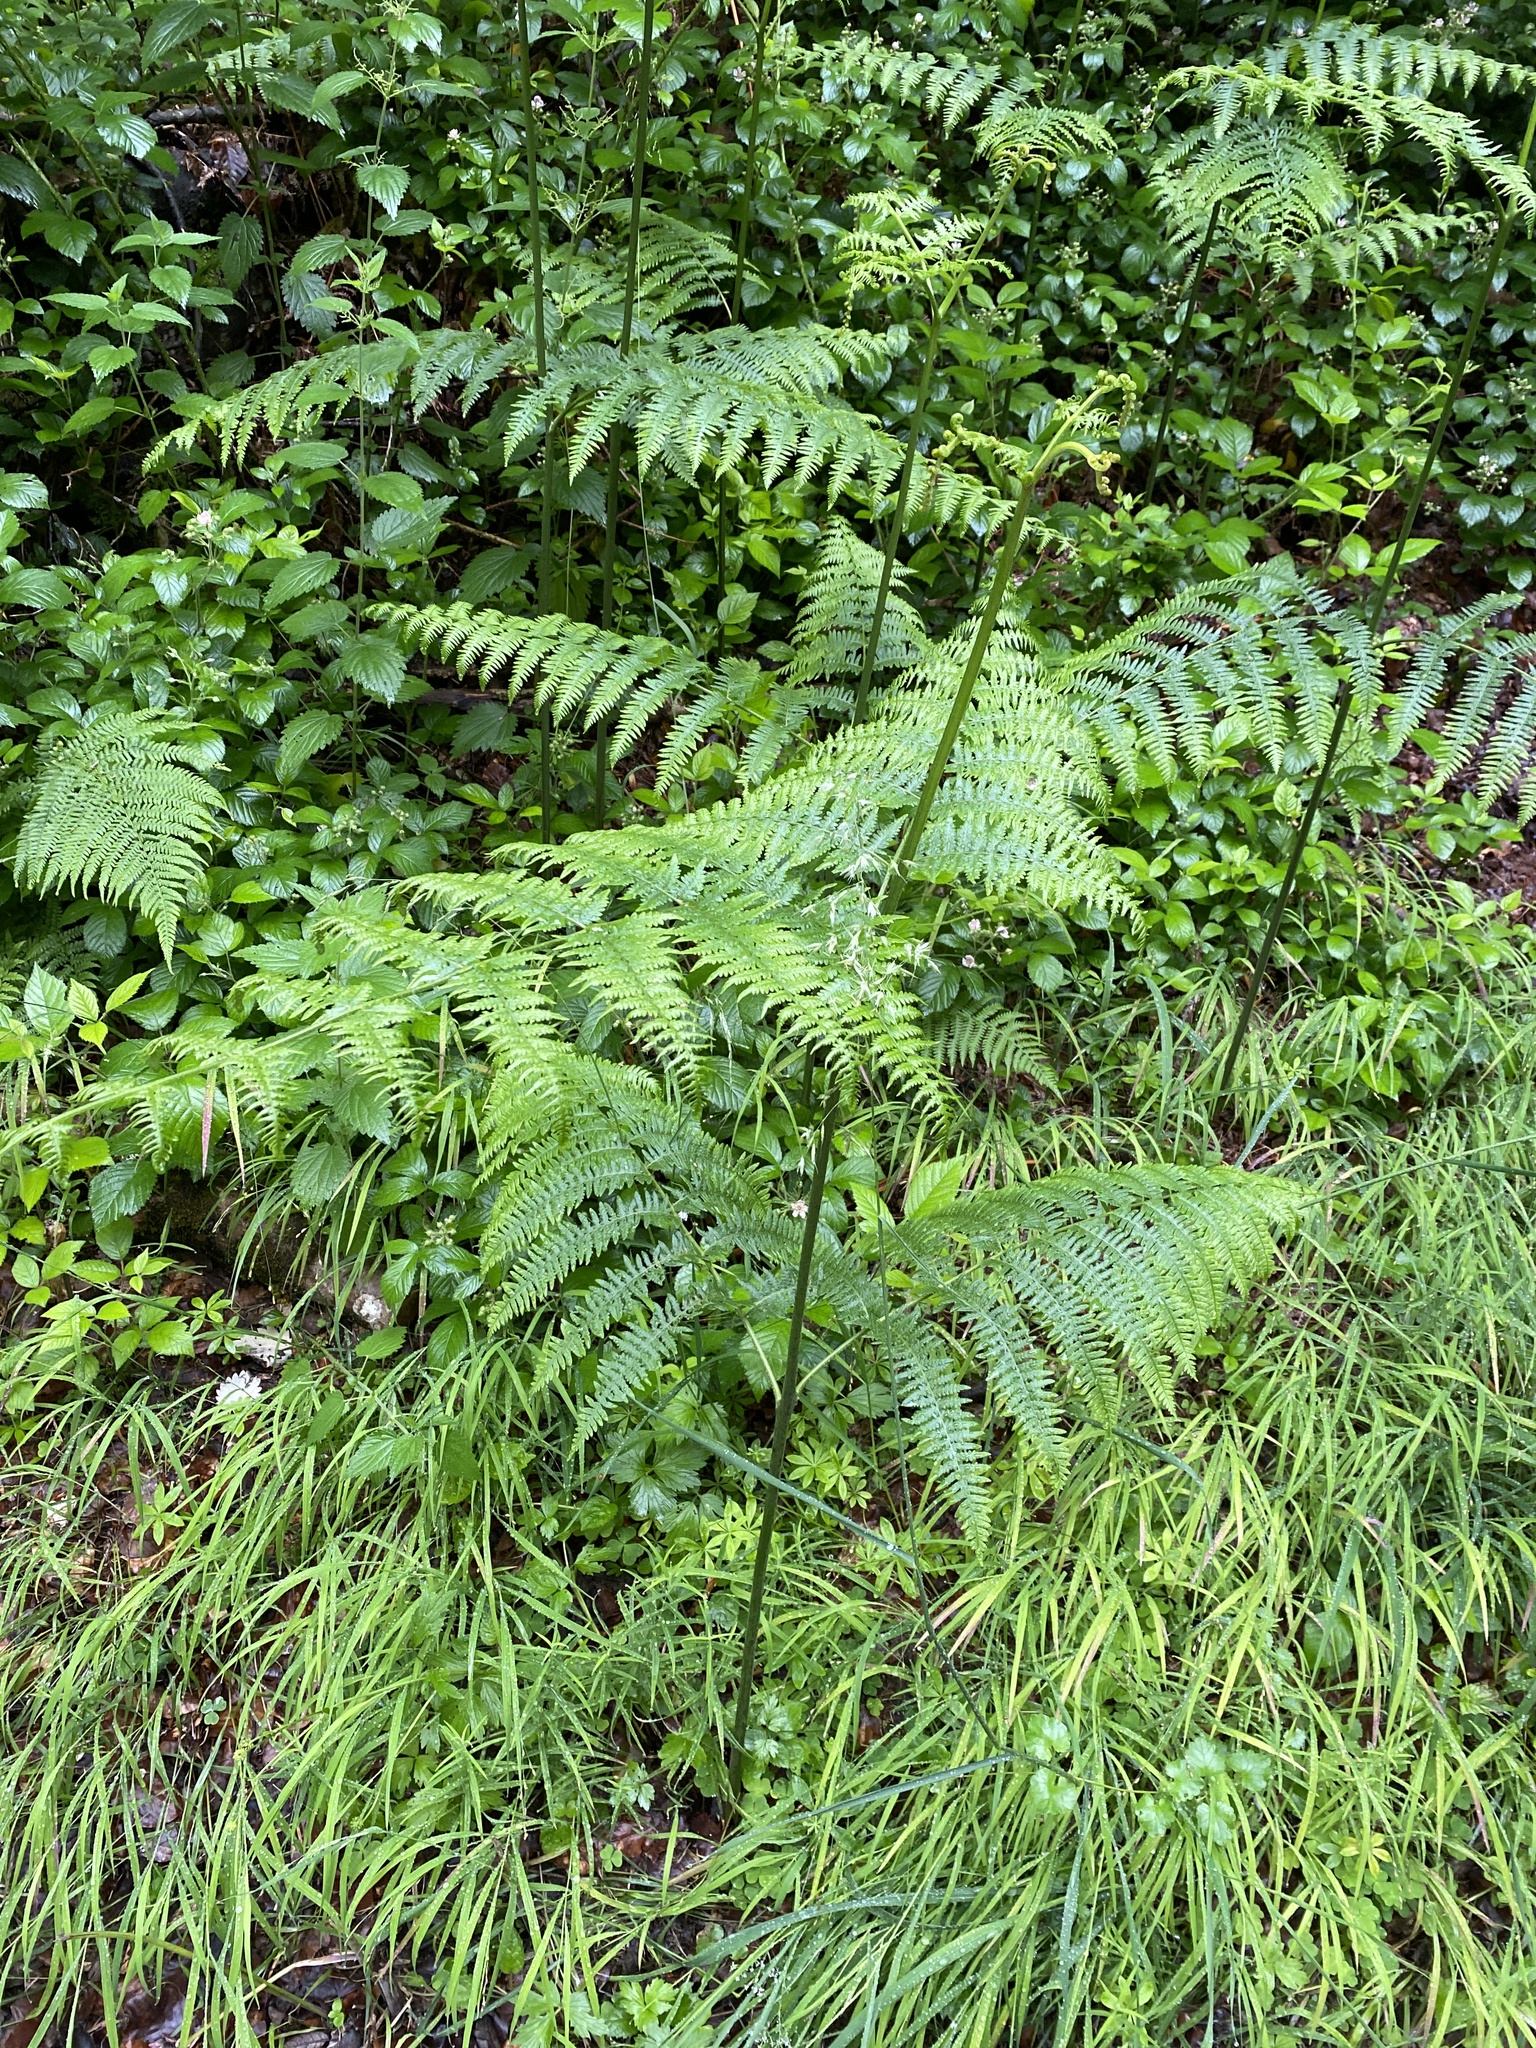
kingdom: Plantae
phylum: Tracheophyta
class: Polypodiopsida
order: Polypodiales
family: Dennstaedtiaceae
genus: Pteridium
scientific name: Pteridium aquilinum
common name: Bracken
